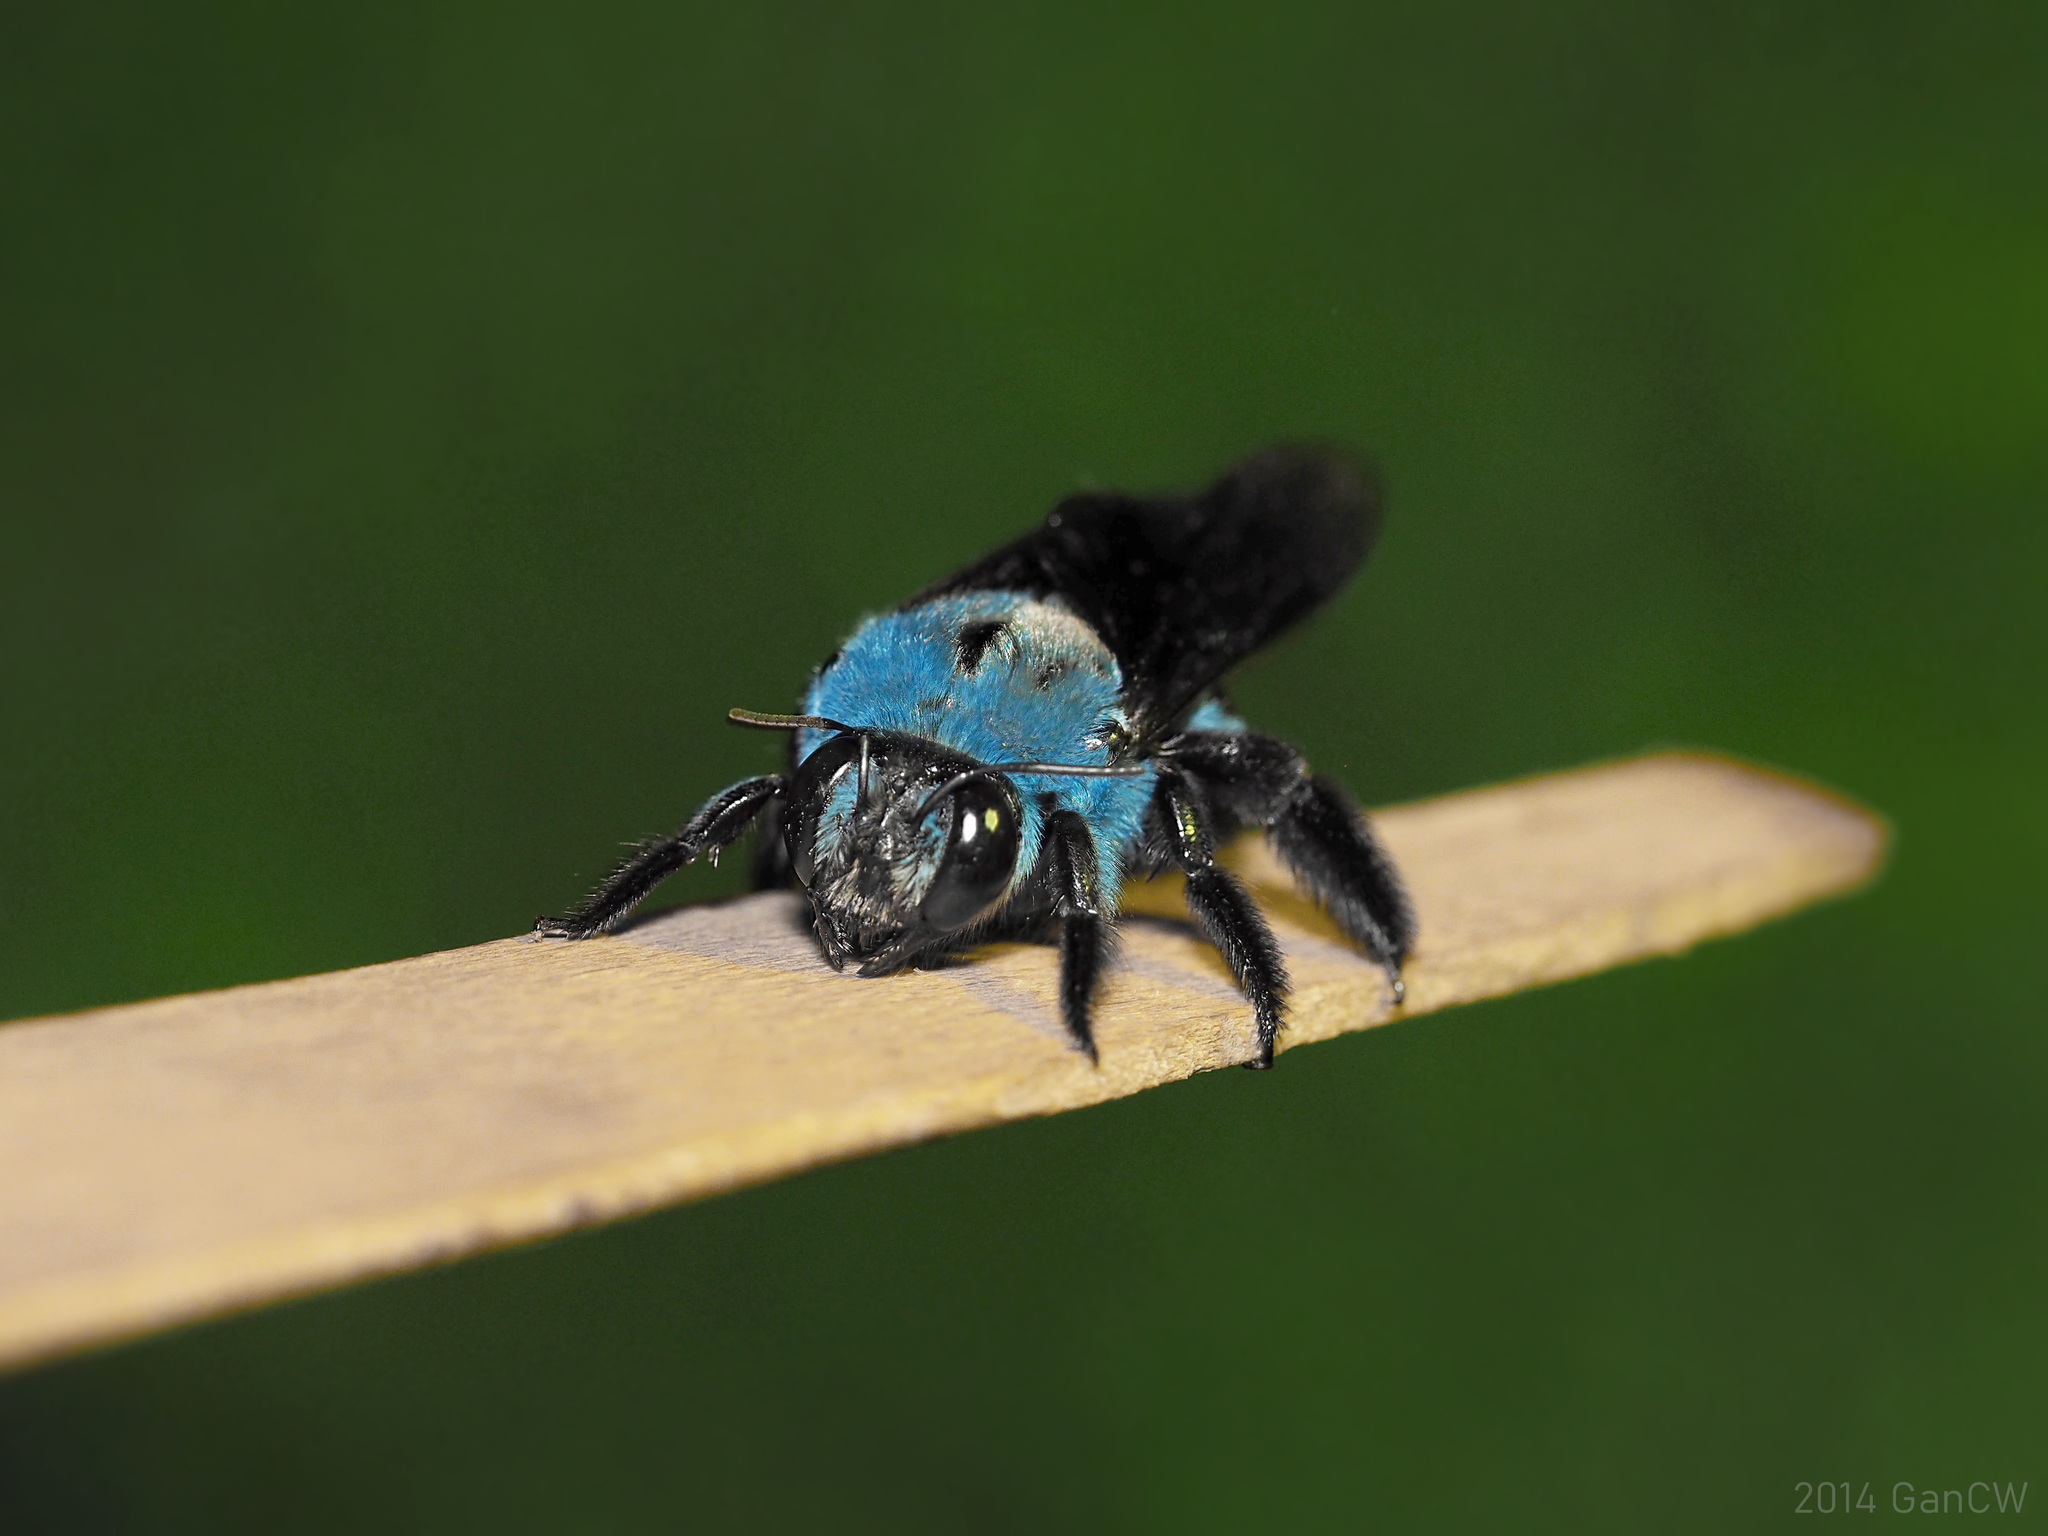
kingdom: Animalia
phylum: Arthropoda
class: Insecta
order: Hymenoptera
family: Apidae
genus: Xylocopa
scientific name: Xylocopa caerulea
